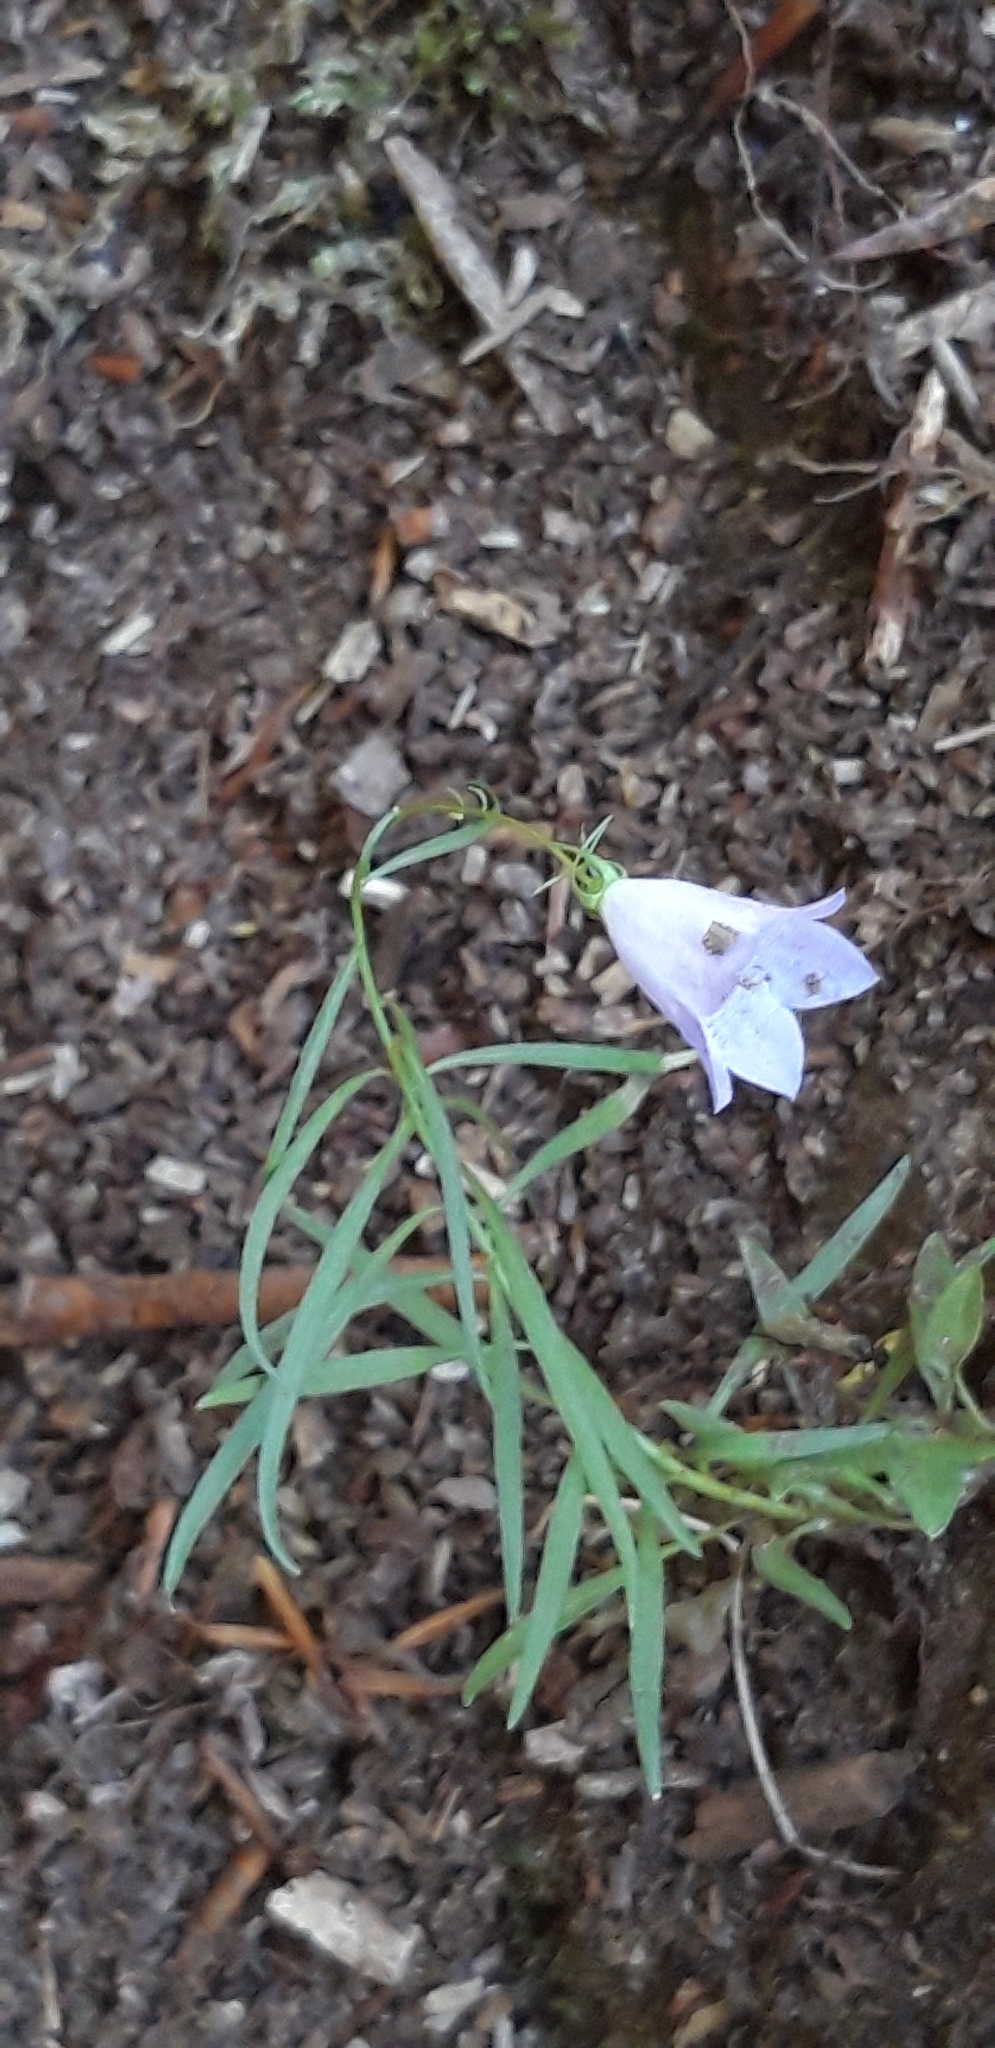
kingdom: Plantae
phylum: Tracheophyta
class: Magnoliopsida
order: Asterales
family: Campanulaceae
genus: Campanula
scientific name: Campanula rotundifolia
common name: Harebell
